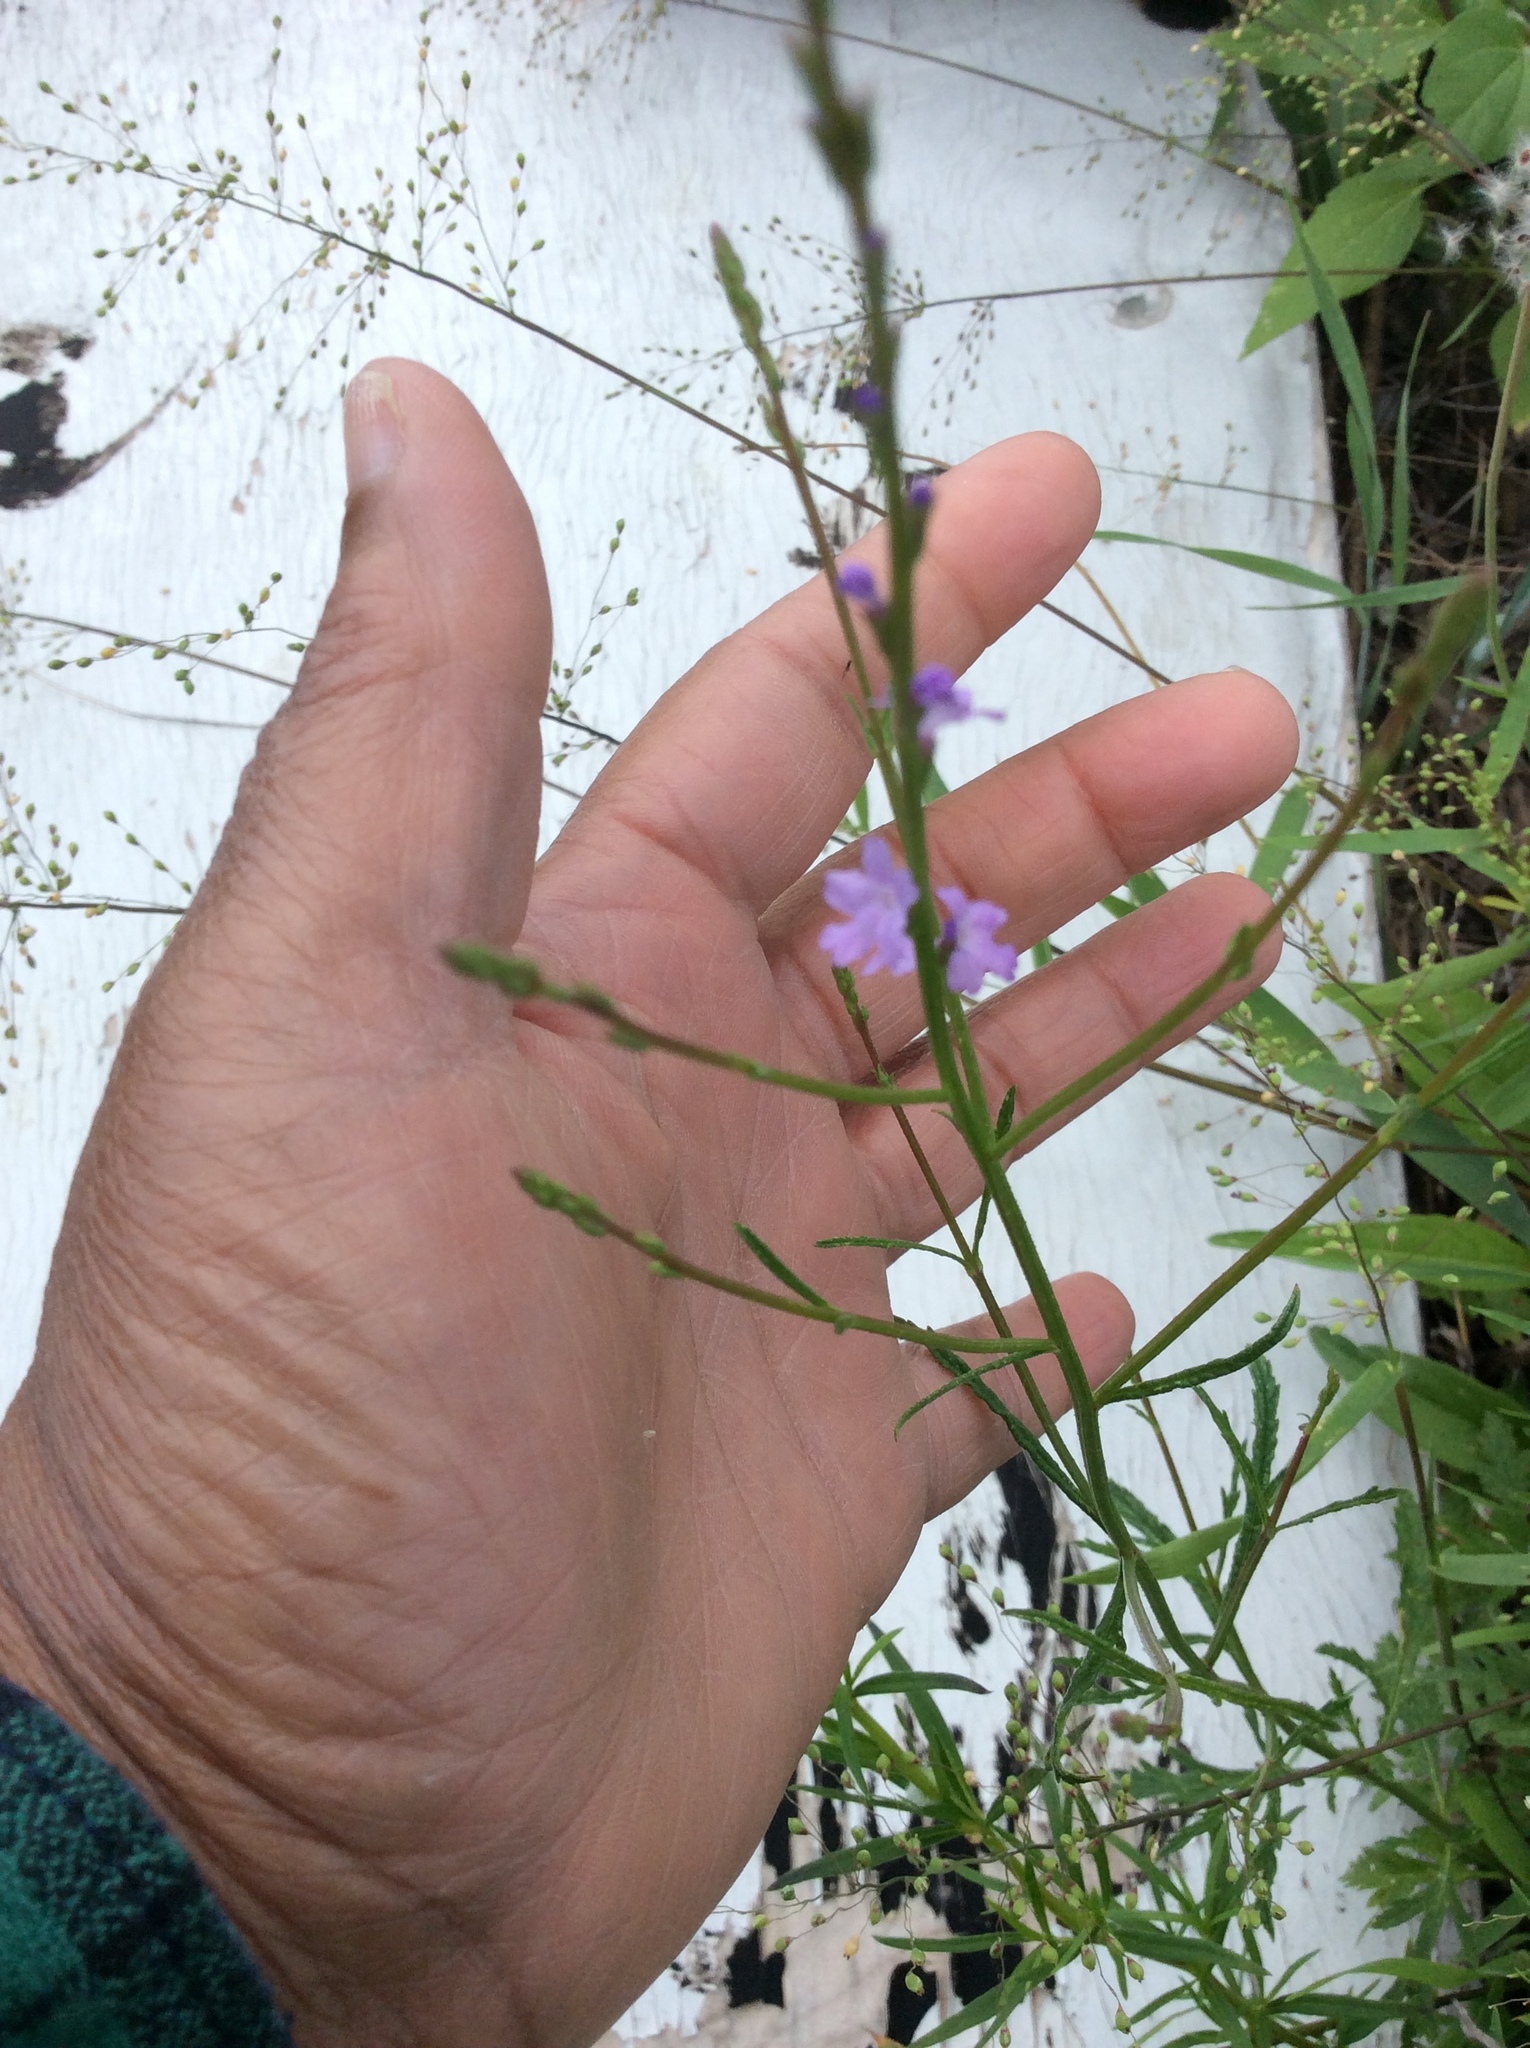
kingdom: Plantae
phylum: Tracheophyta
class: Magnoliopsida
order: Lamiales
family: Verbenaceae
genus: Verbena
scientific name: Verbena halei
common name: Texas vervain
